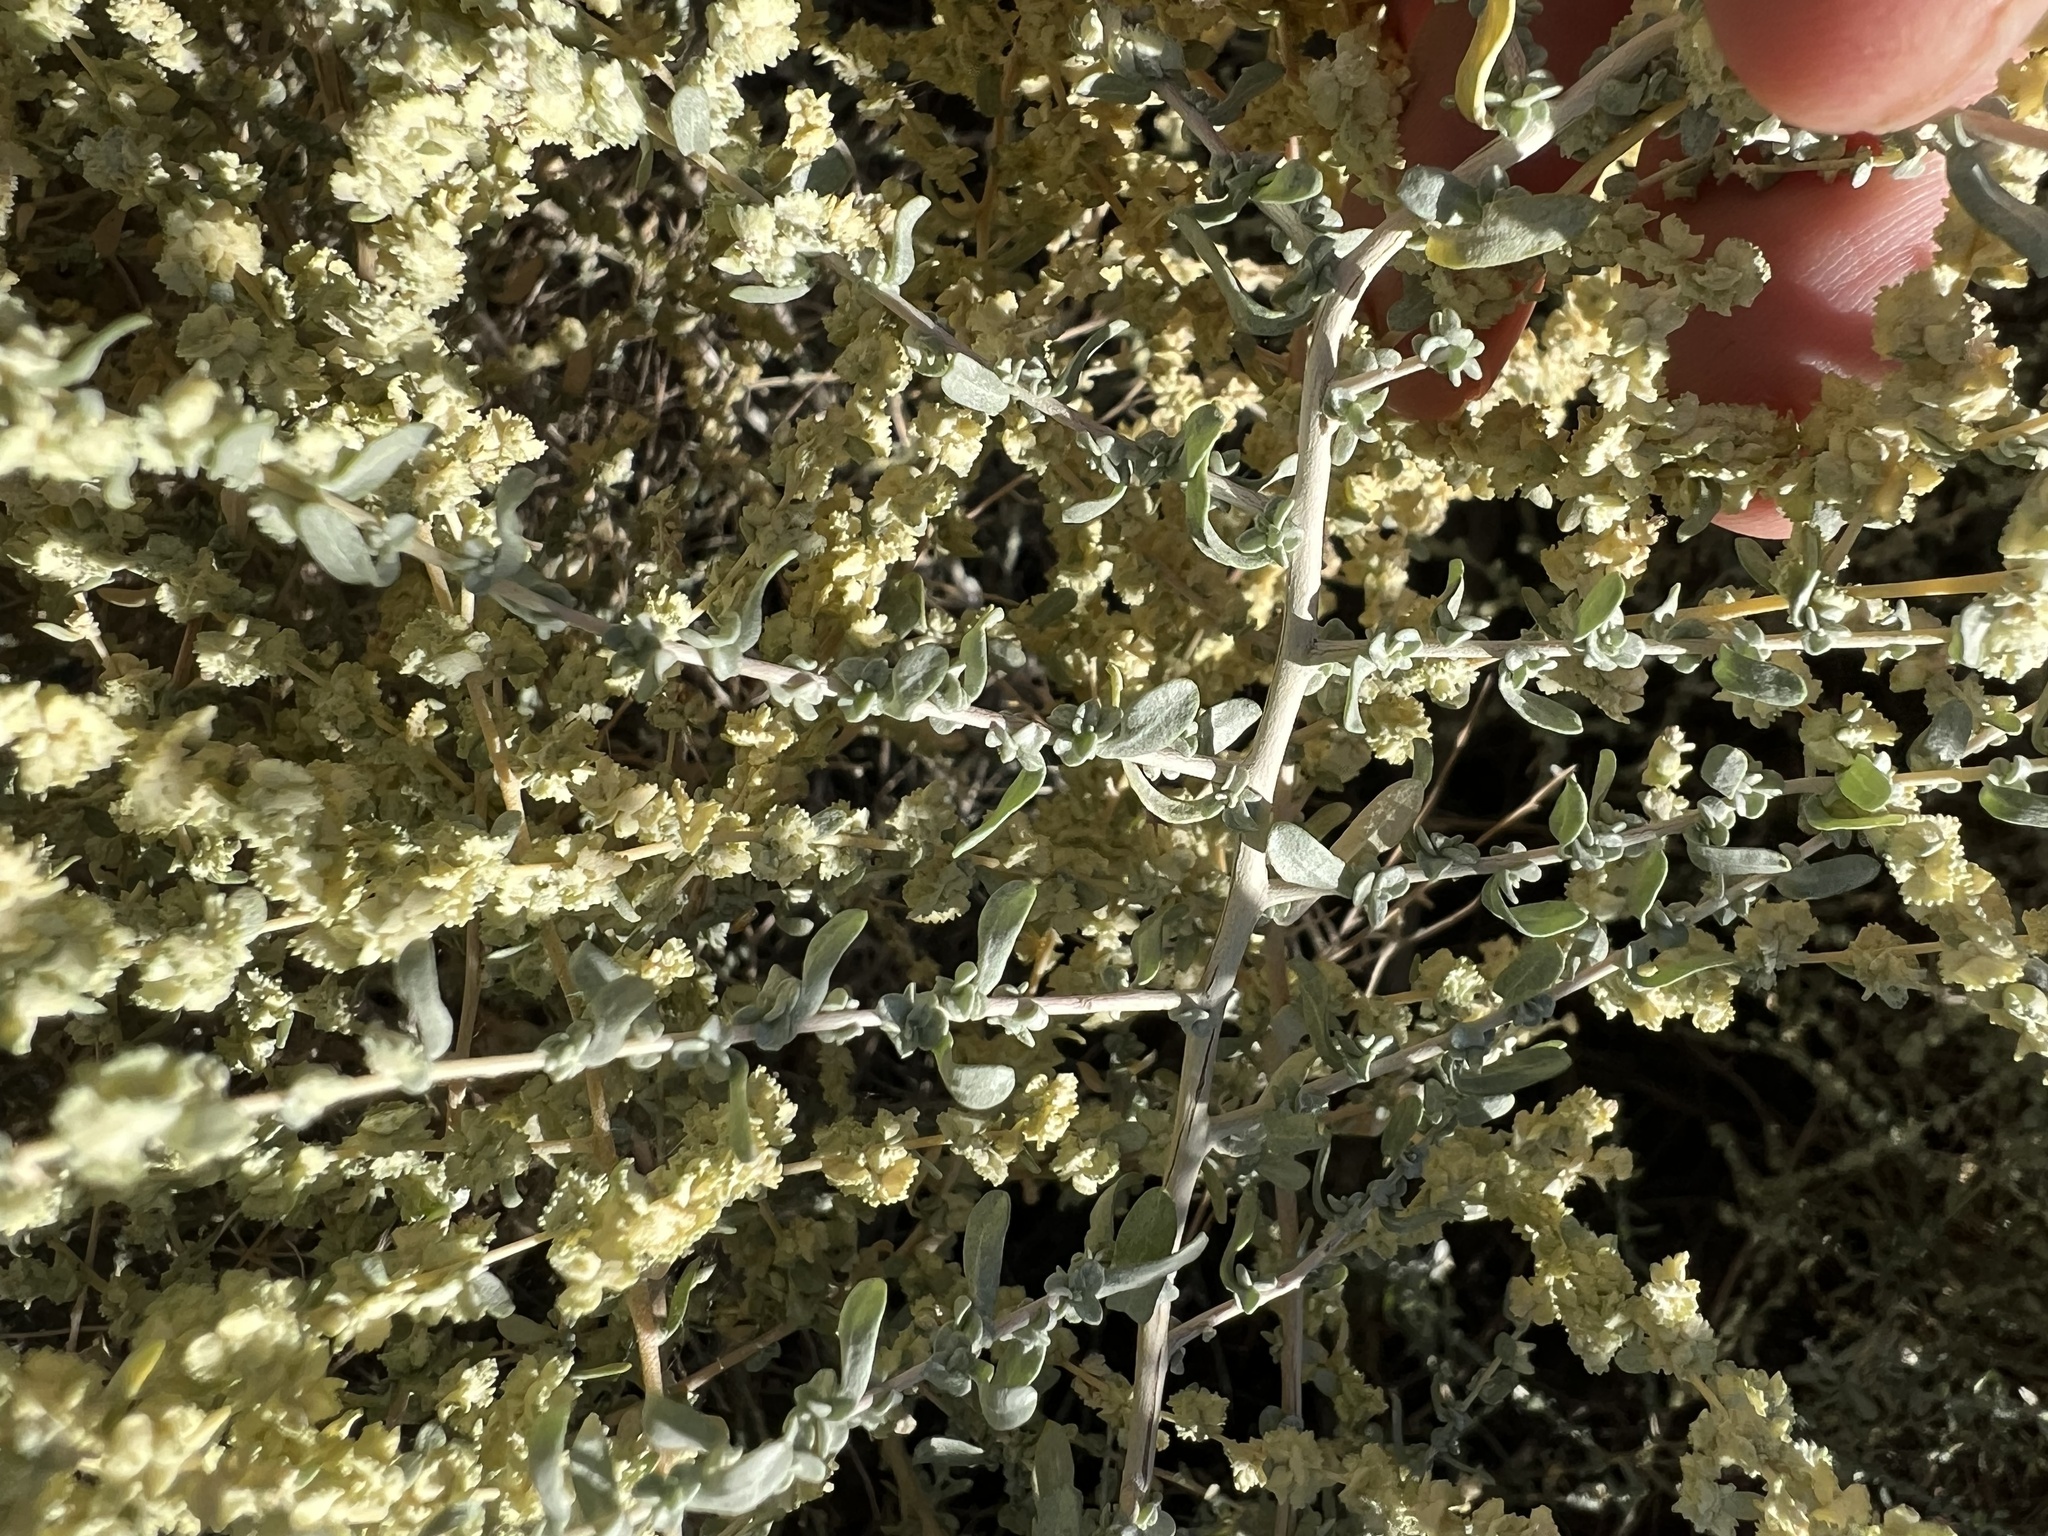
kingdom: Plantae
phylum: Tracheophyta
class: Magnoliopsida
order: Caryophyllales
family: Amaranthaceae
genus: Atriplex
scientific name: Atriplex polycarpa
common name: Desert saltbush
